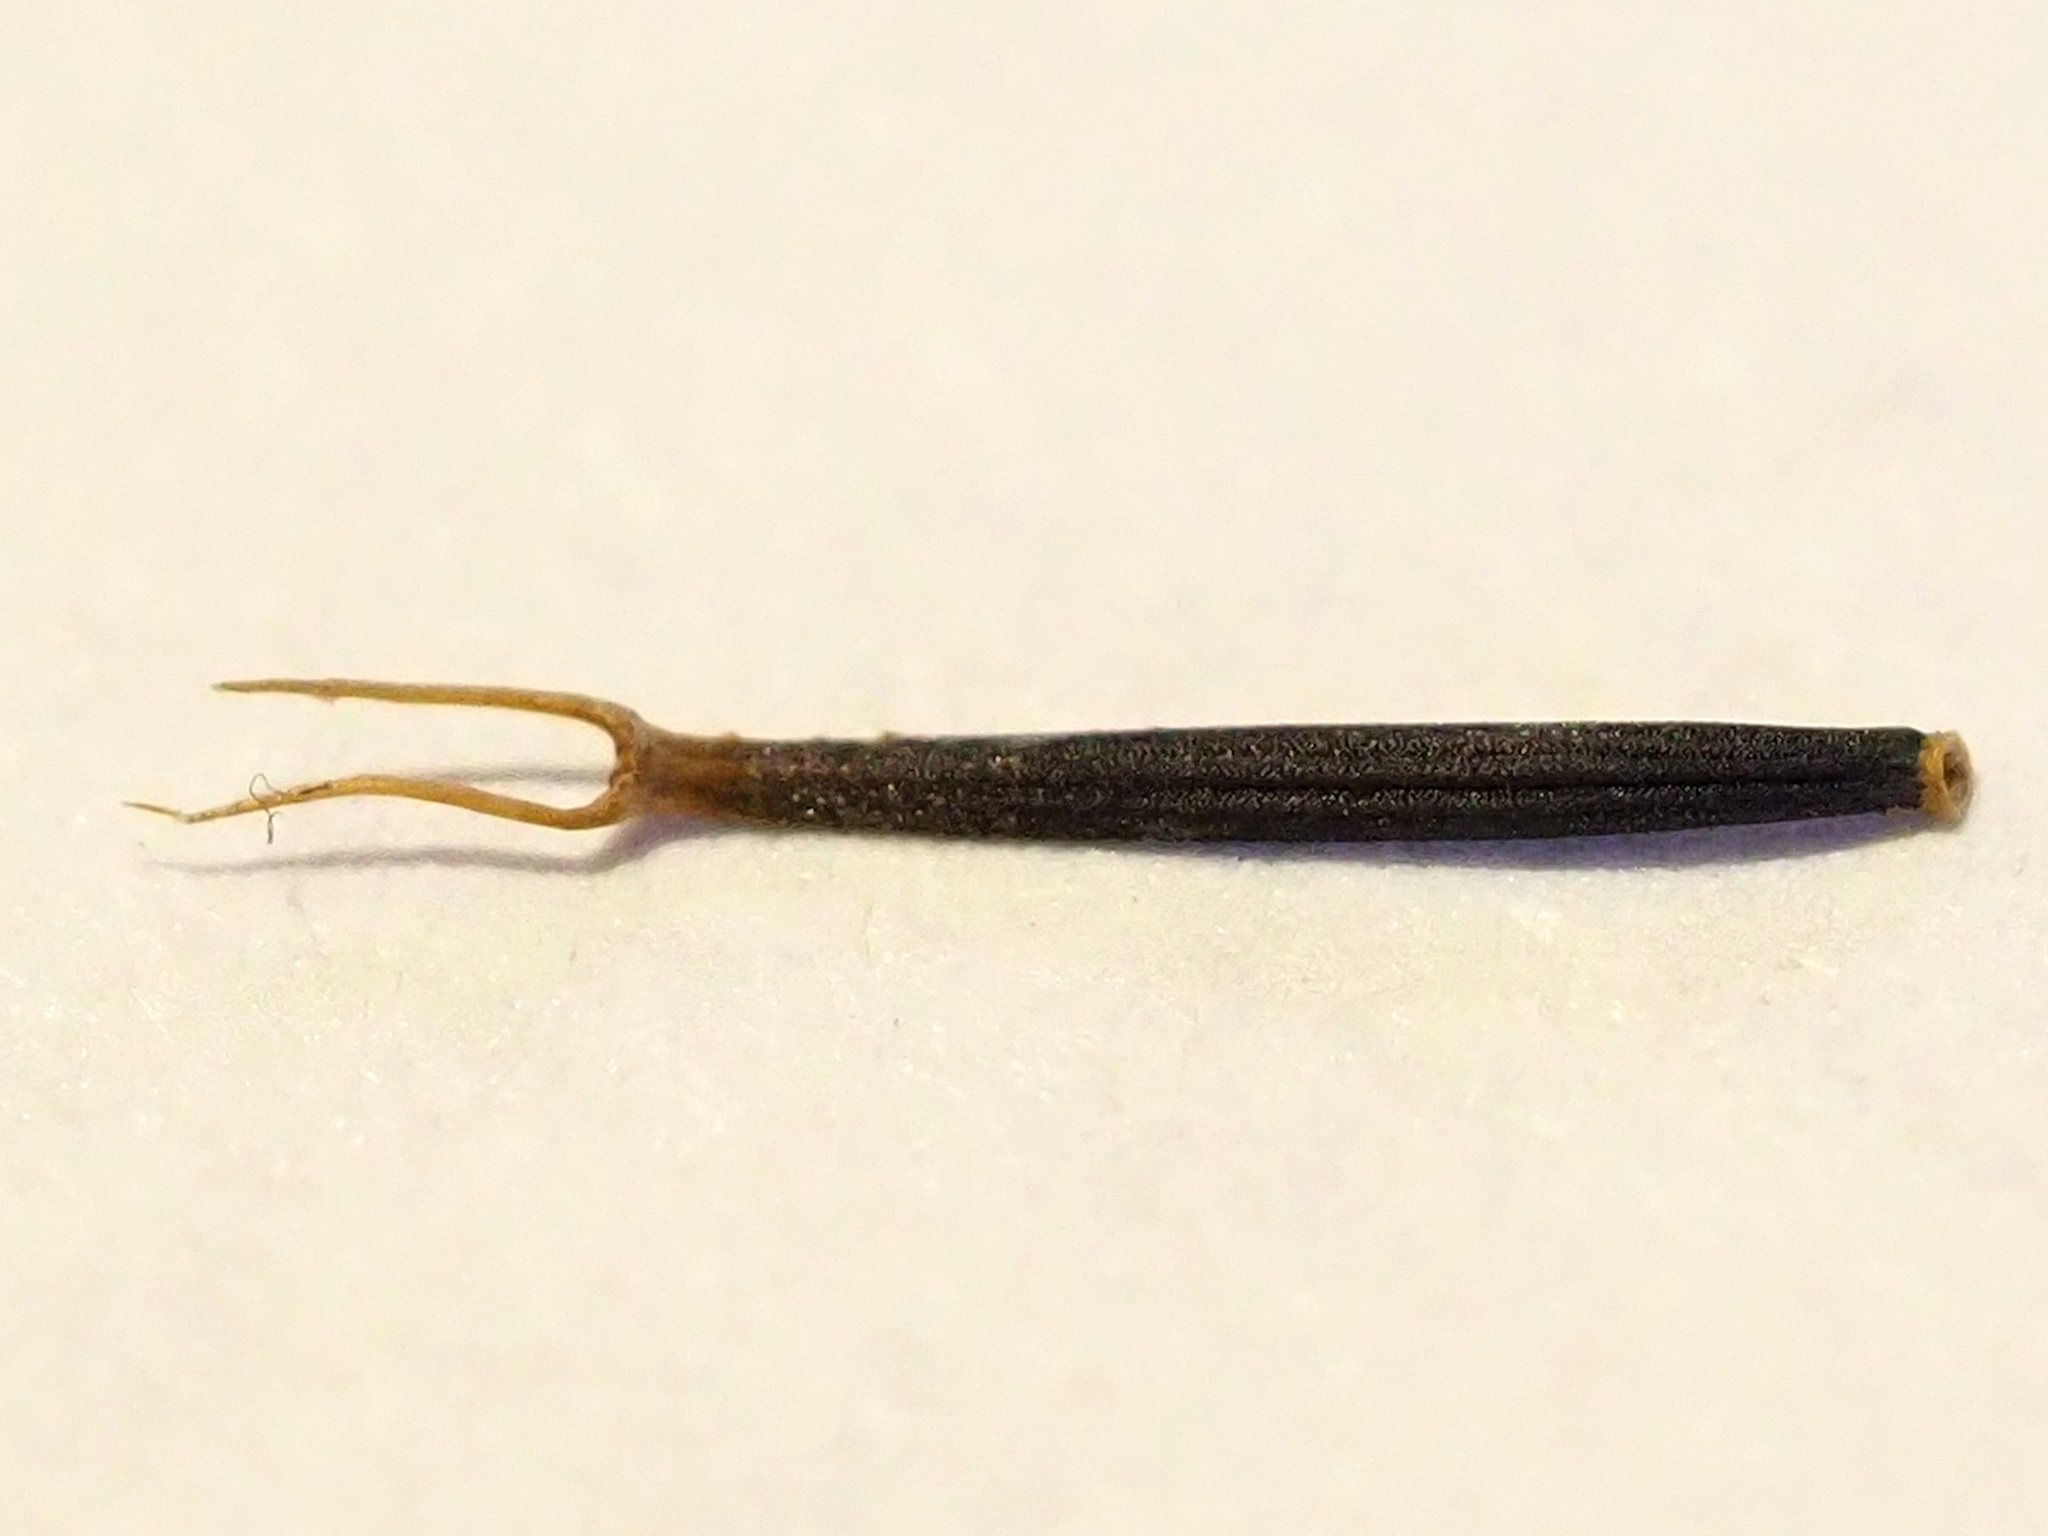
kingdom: Plantae
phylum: Tracheophyta
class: Magnoliopsida
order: Asterales
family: Asteraceae
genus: Bidens
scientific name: Bidens alba
